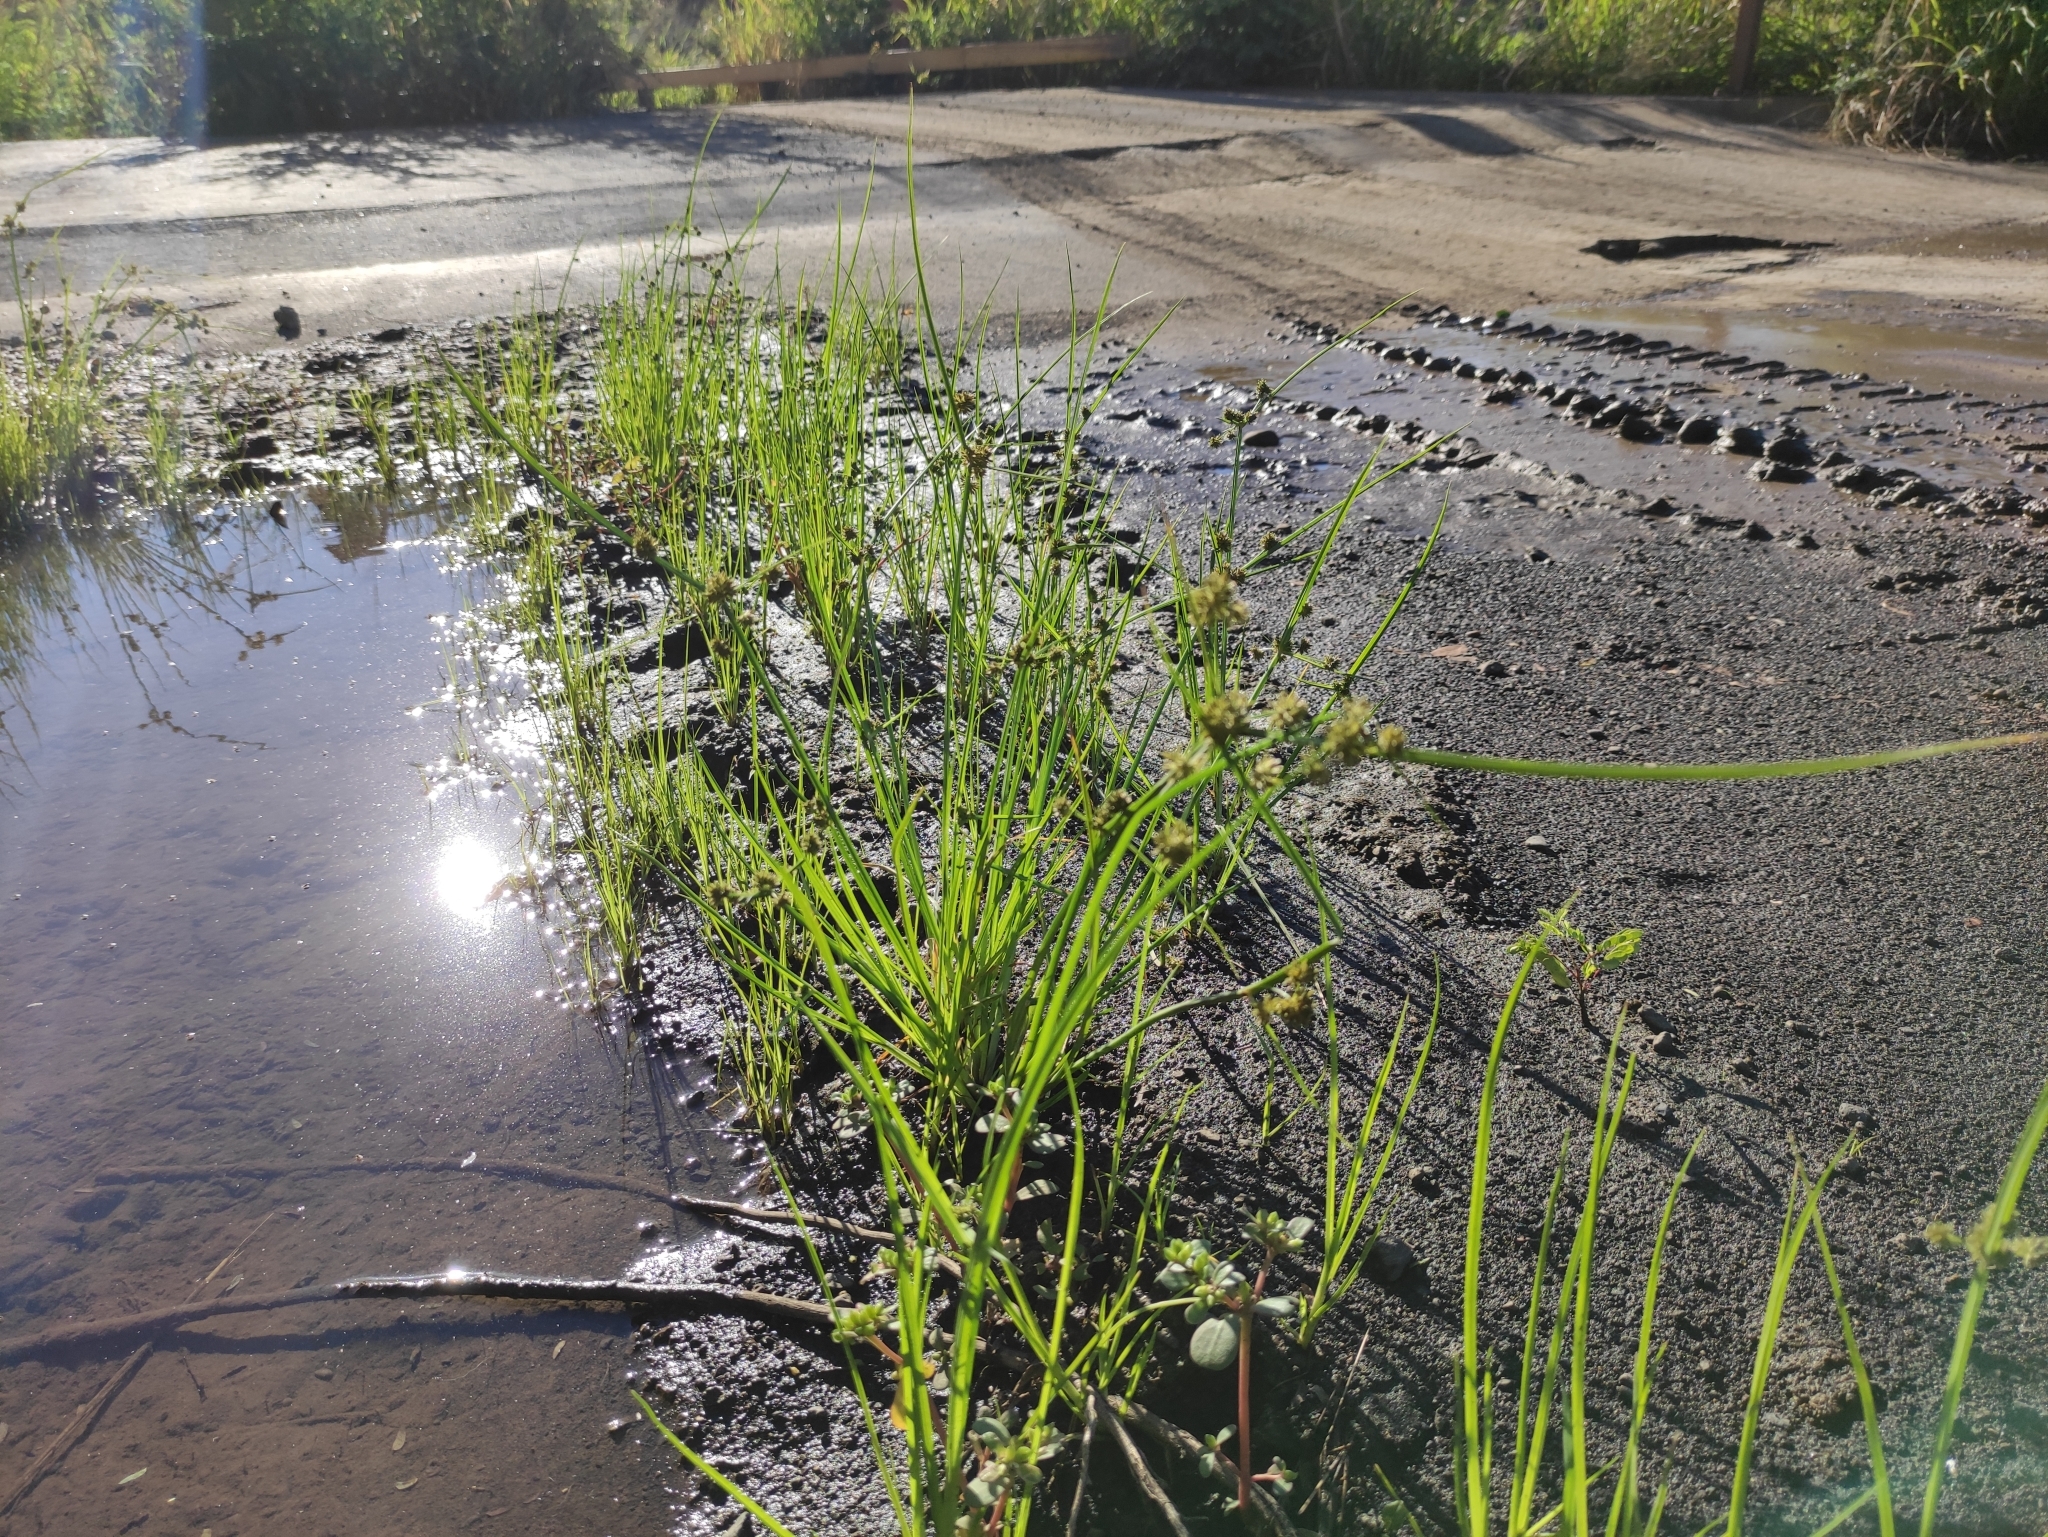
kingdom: Plantae
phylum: Tracheophyta
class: Liliopsida
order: Poales
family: Cyperaceae
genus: Cyperus
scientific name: Cyperus difformis
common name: Variable flatsedge
